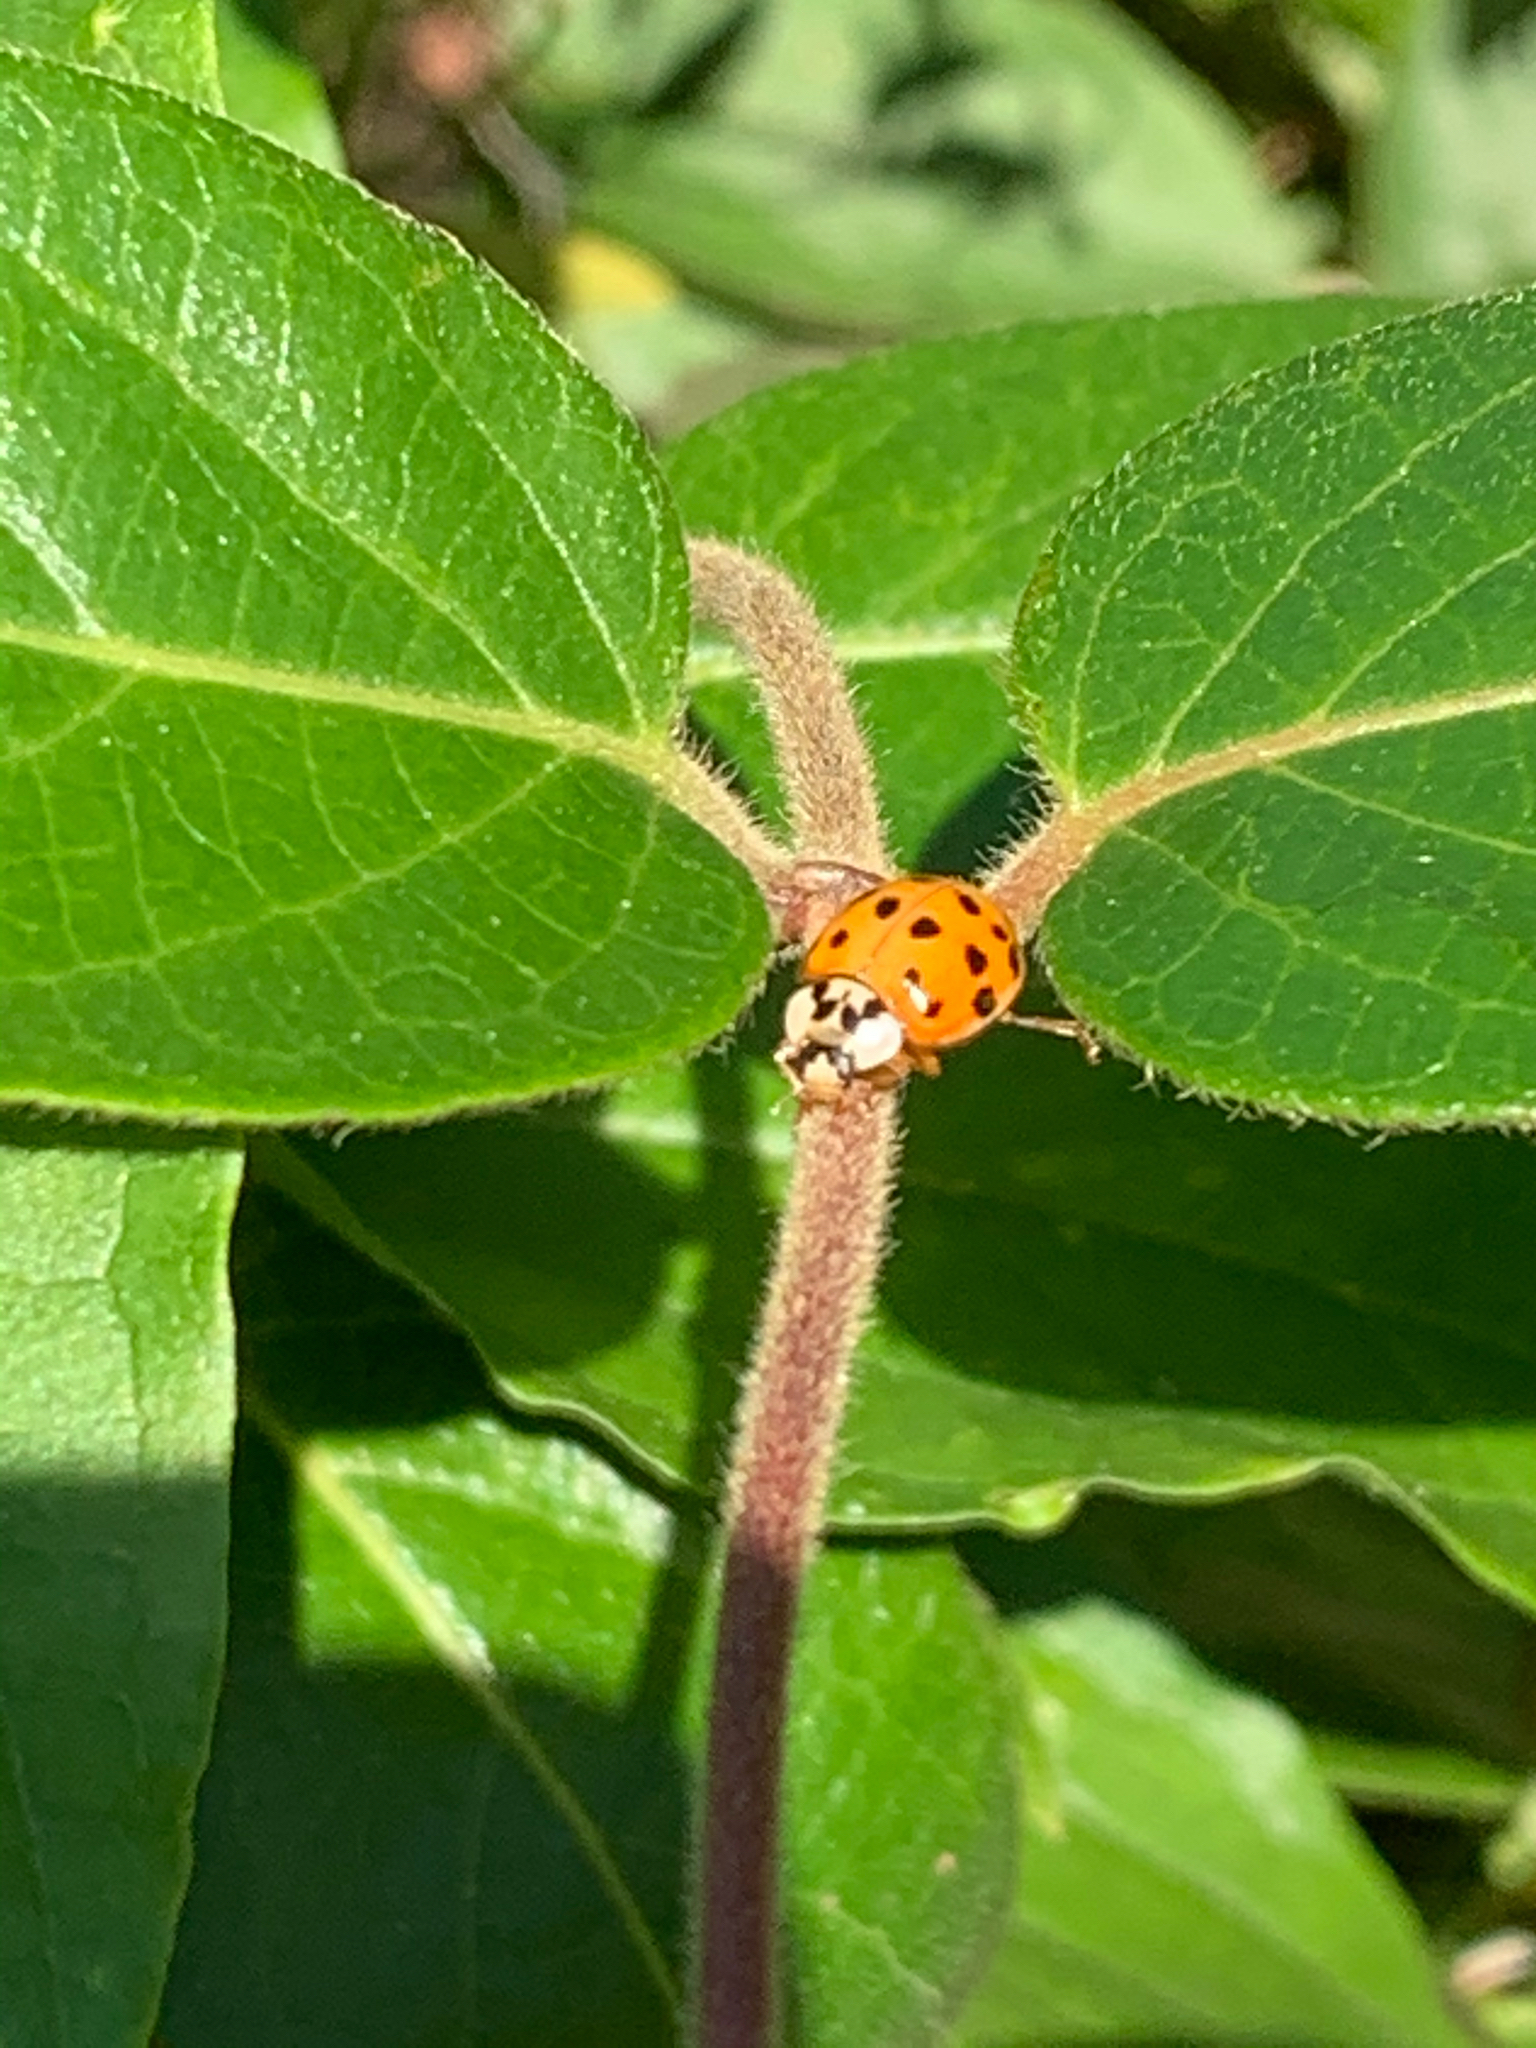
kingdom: Animalia
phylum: Arthropoda
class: Insecta
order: Coleoptera
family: Coccinellidae
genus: Harmonia
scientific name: Harmonia axyridis
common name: Harlequin ladybird
